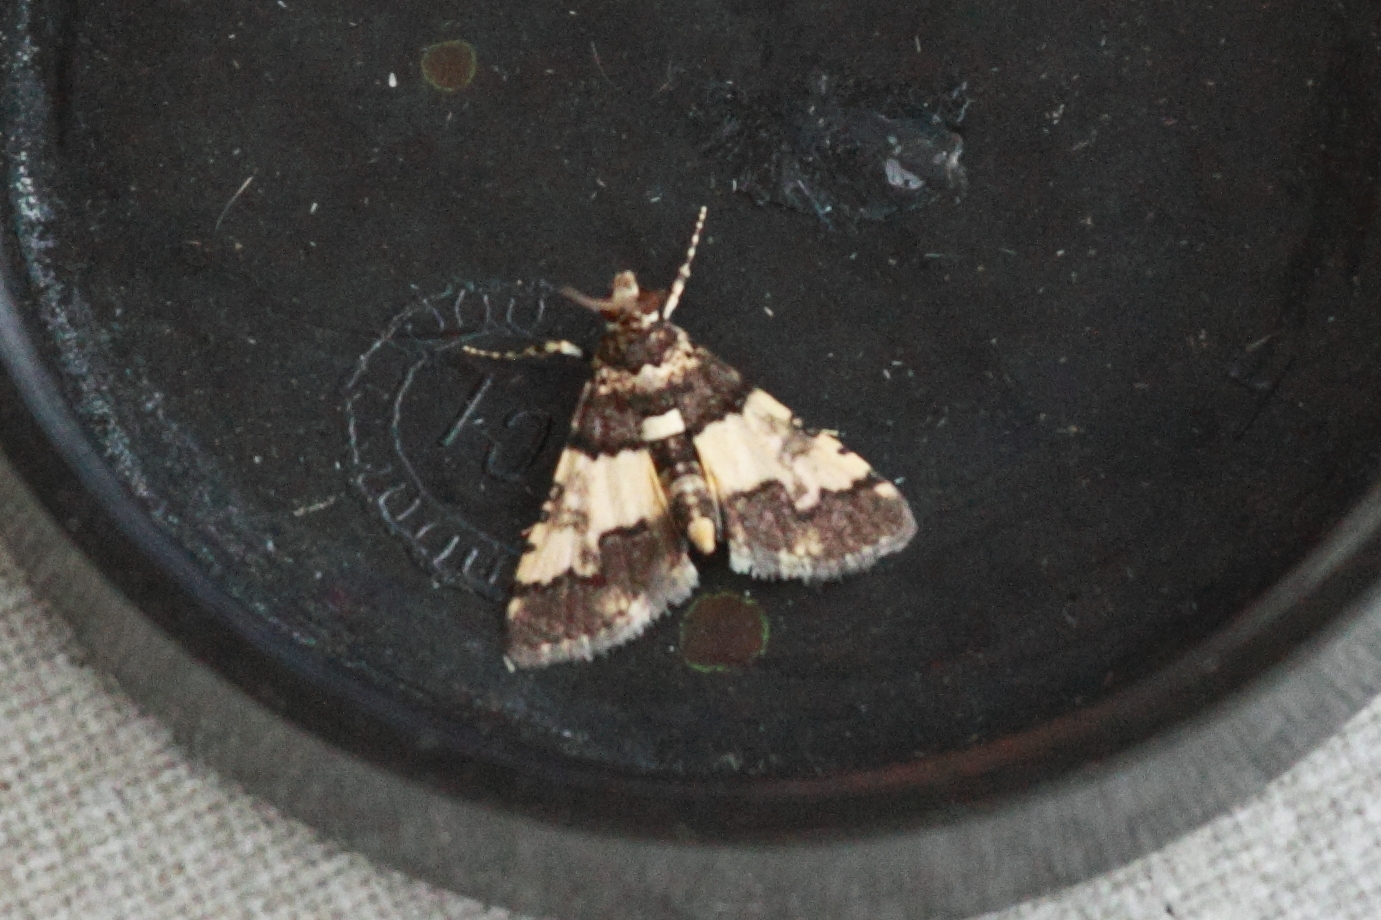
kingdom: Animalia
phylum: Arthropoda
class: Insecta
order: Lepidoptera
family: Crambidae
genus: Nacoleia
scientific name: Nacoleia mesochlora
